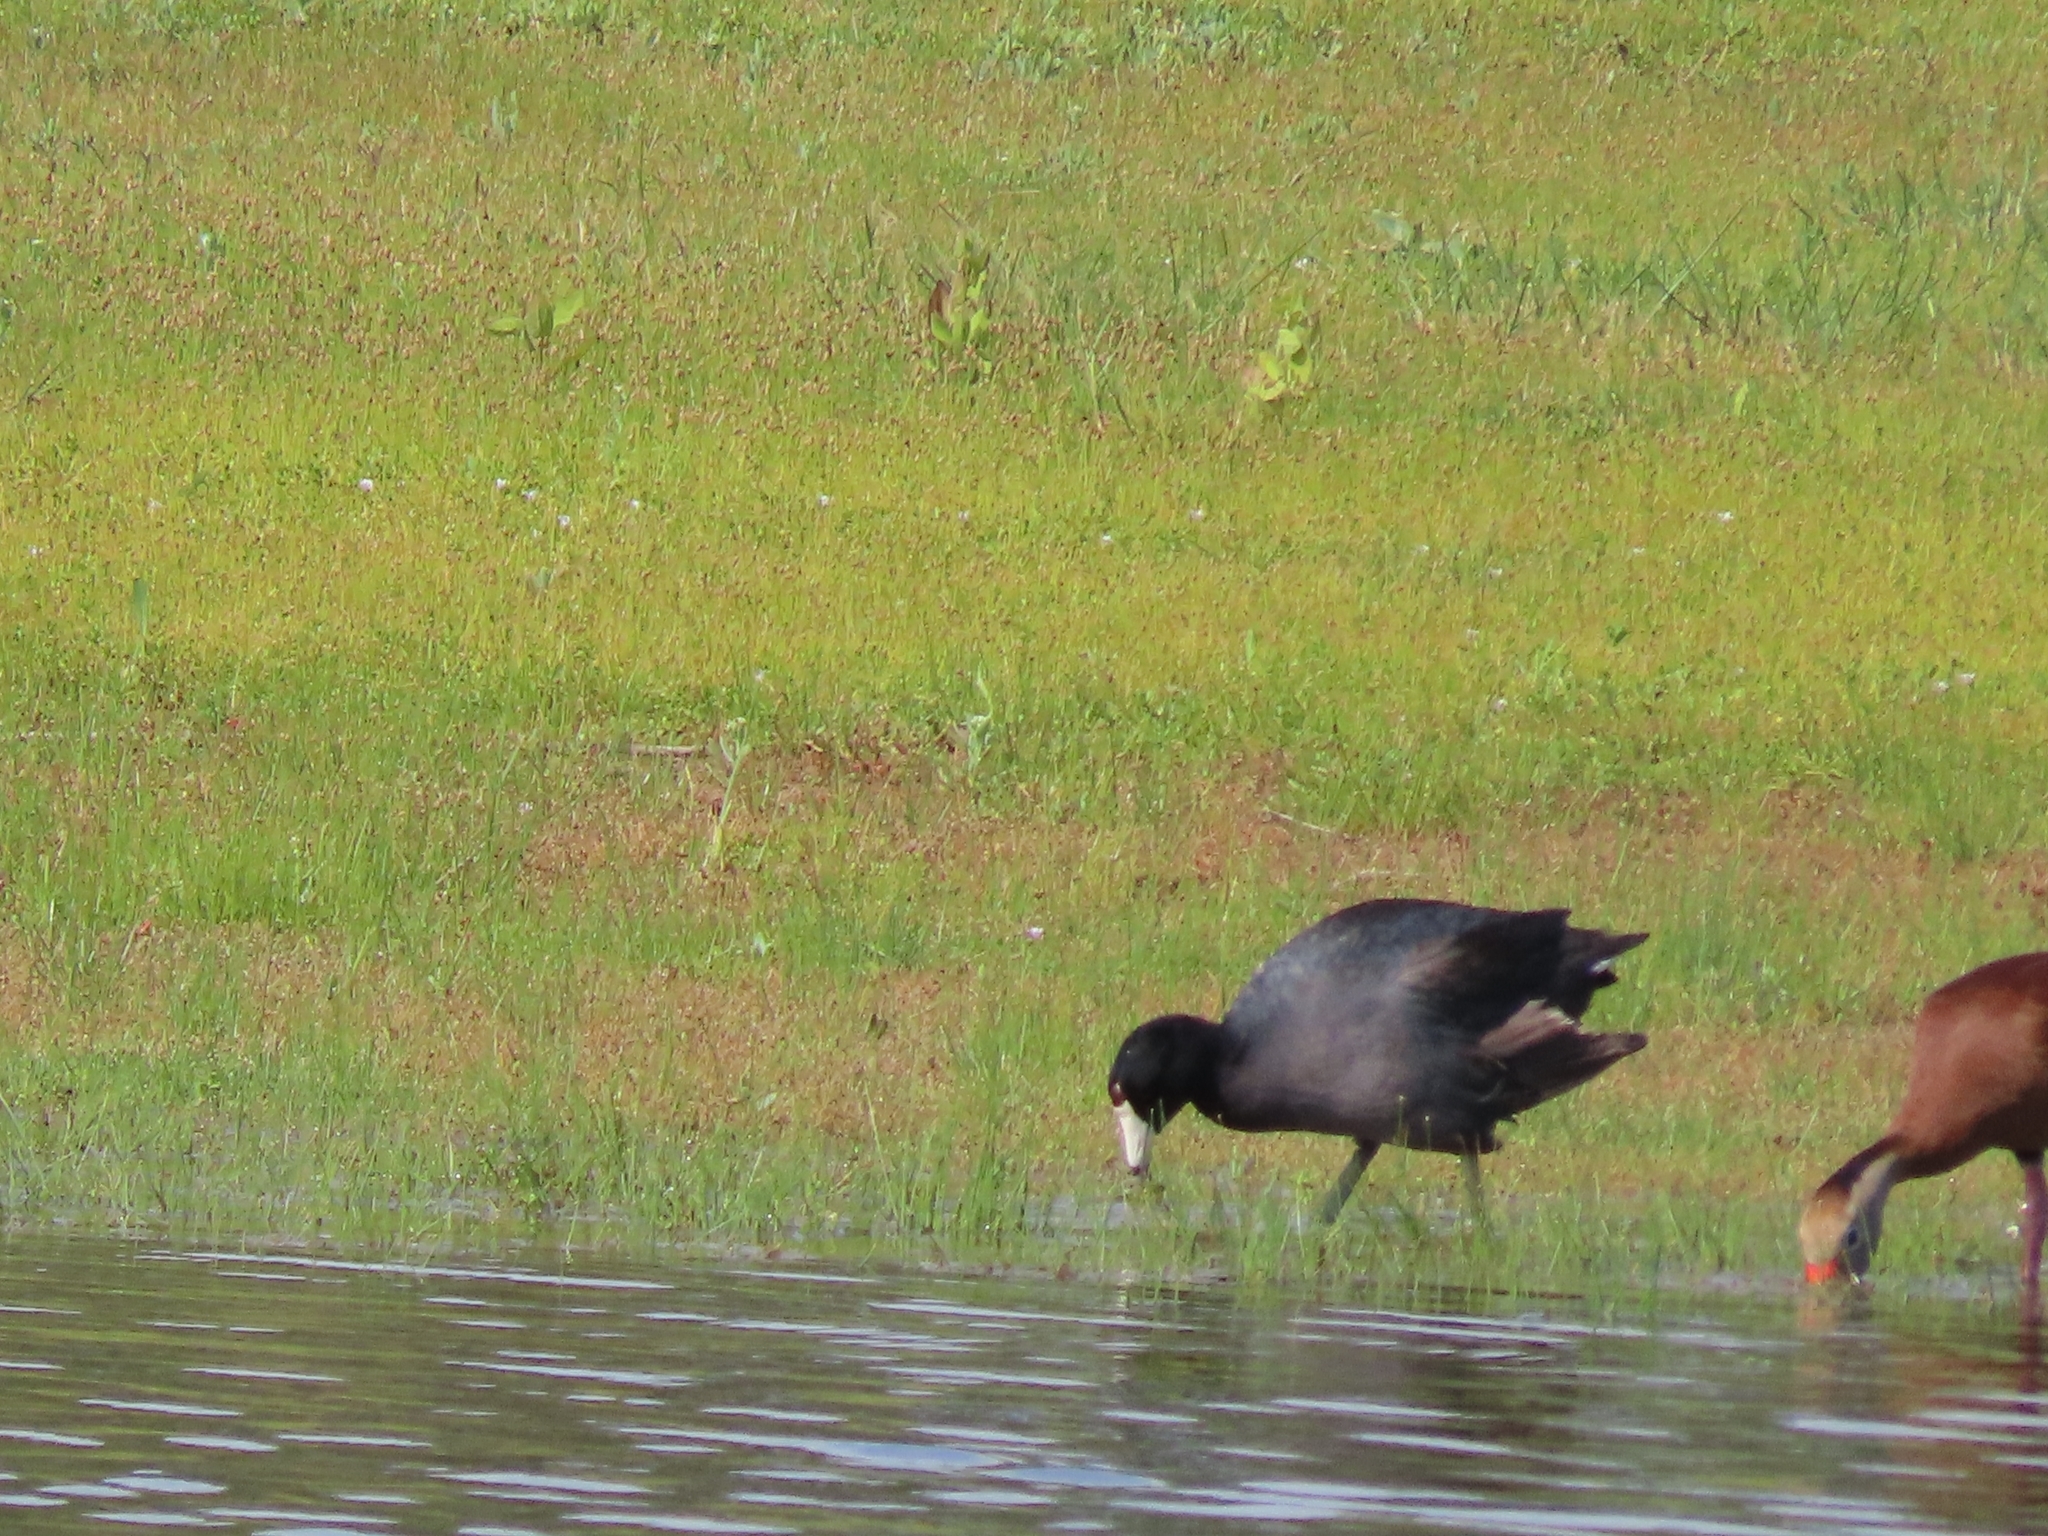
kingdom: Animalia
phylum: Chordata
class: Aves
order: Gruiformes
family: Rallidae
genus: Fulica
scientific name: Fulica americana
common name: American coot
